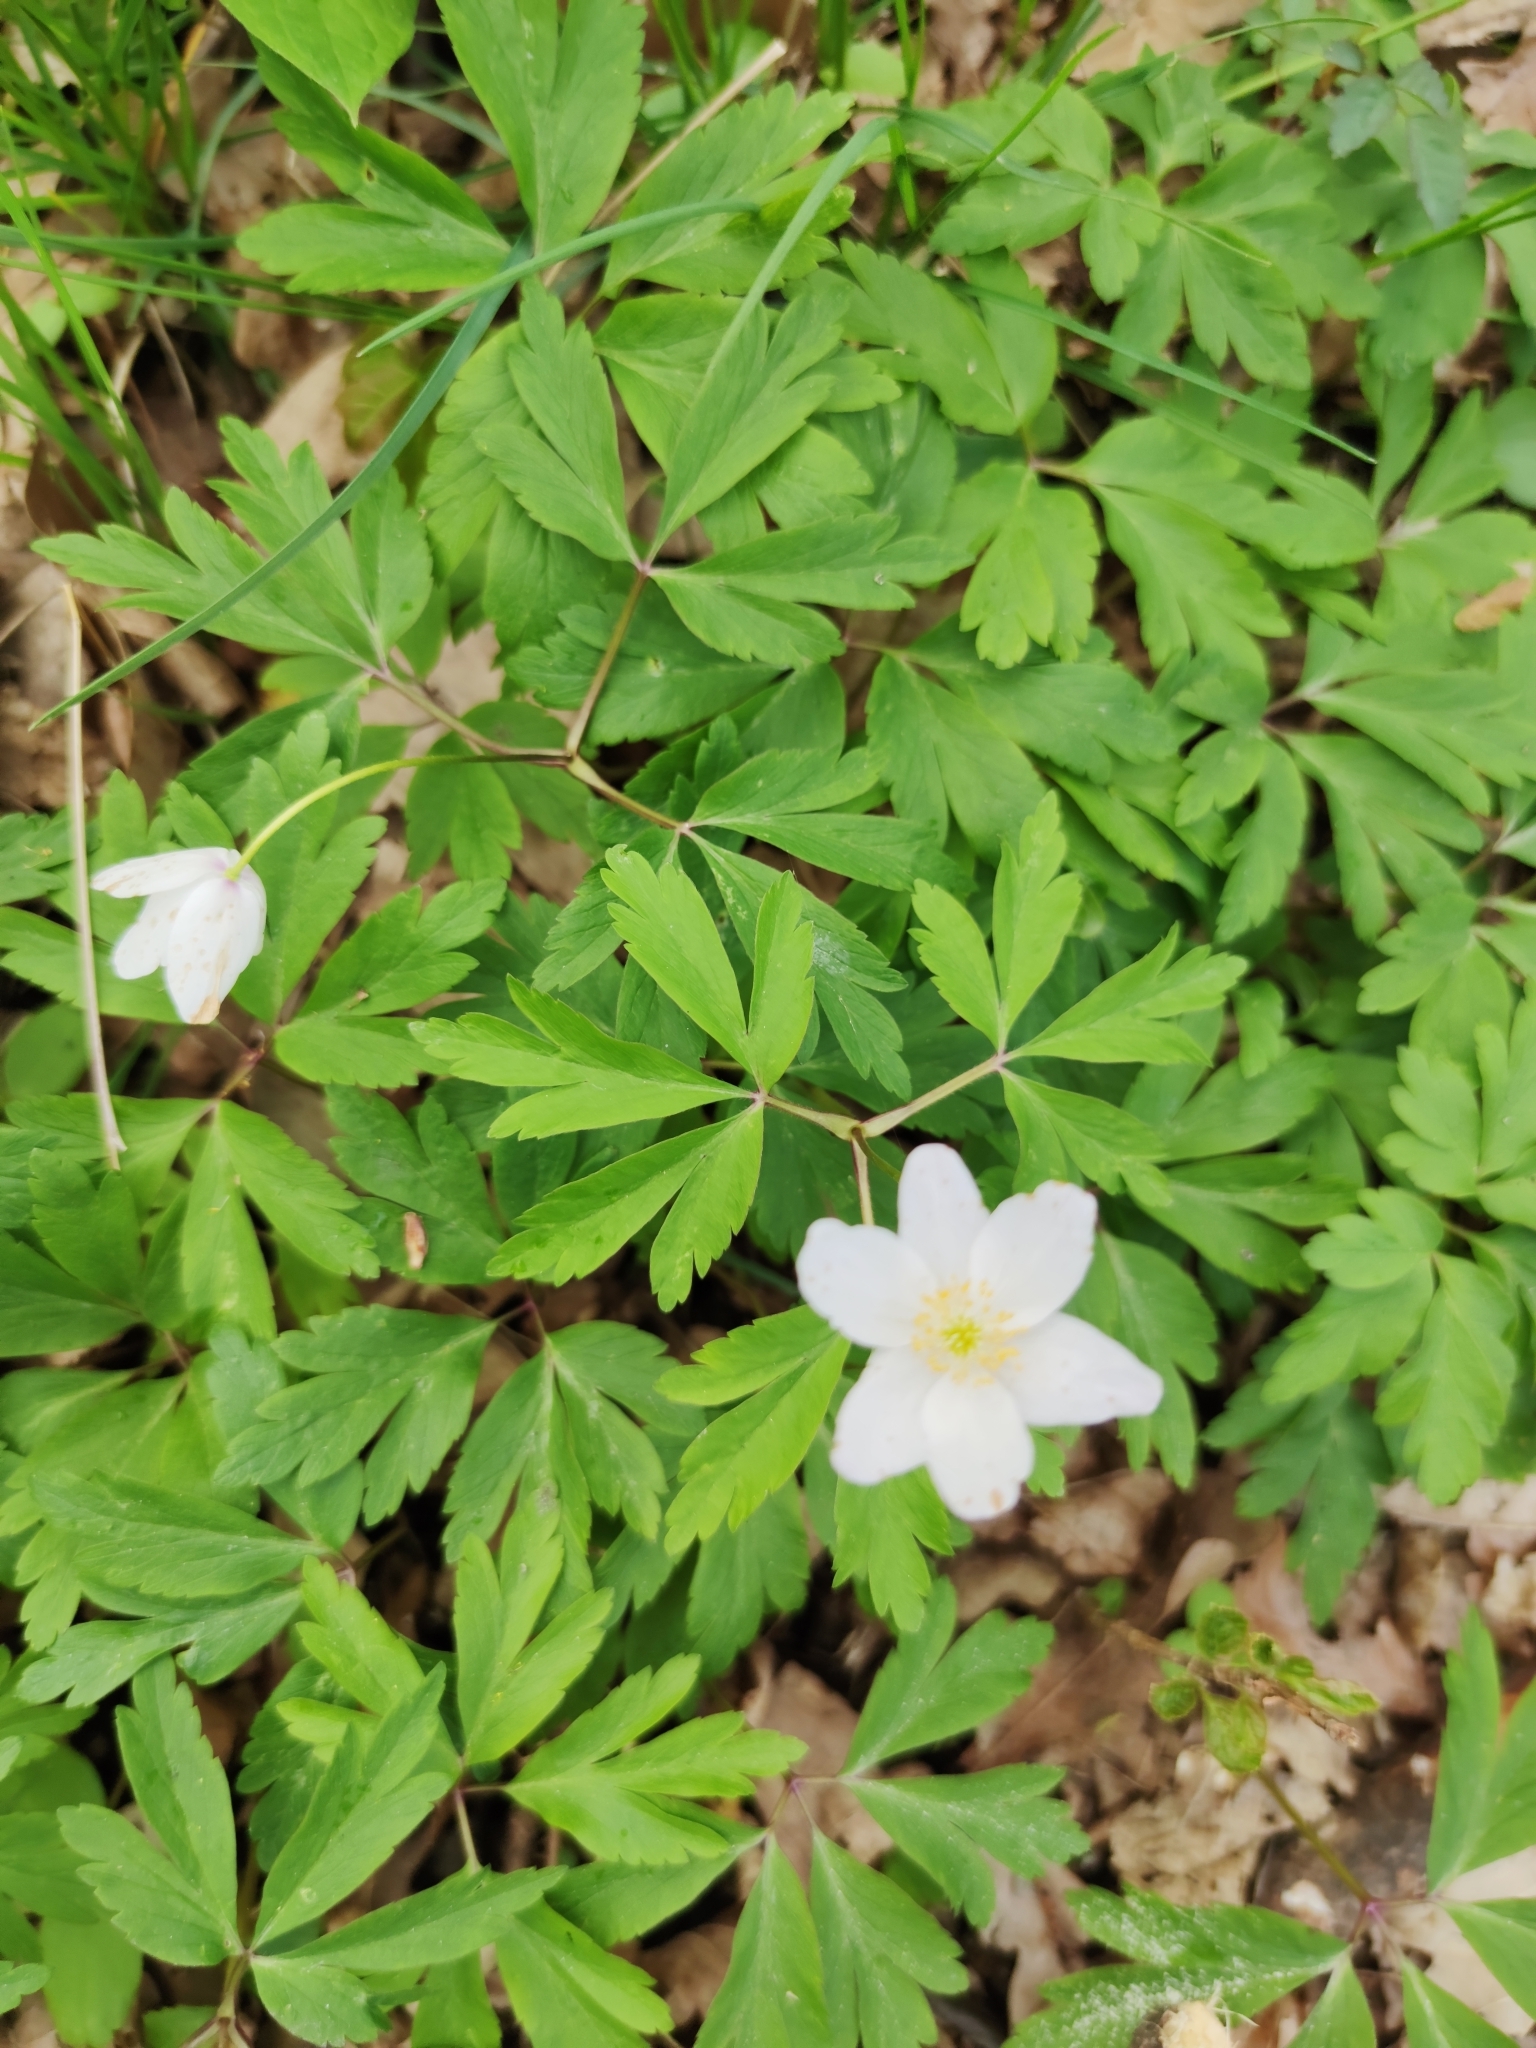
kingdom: Plantae
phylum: Tracheophyta
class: Magnoliopsida
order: Ranunculales
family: Ranunculaceae
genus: Anemone
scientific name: Anemone nemorosa
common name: Wood anemone
